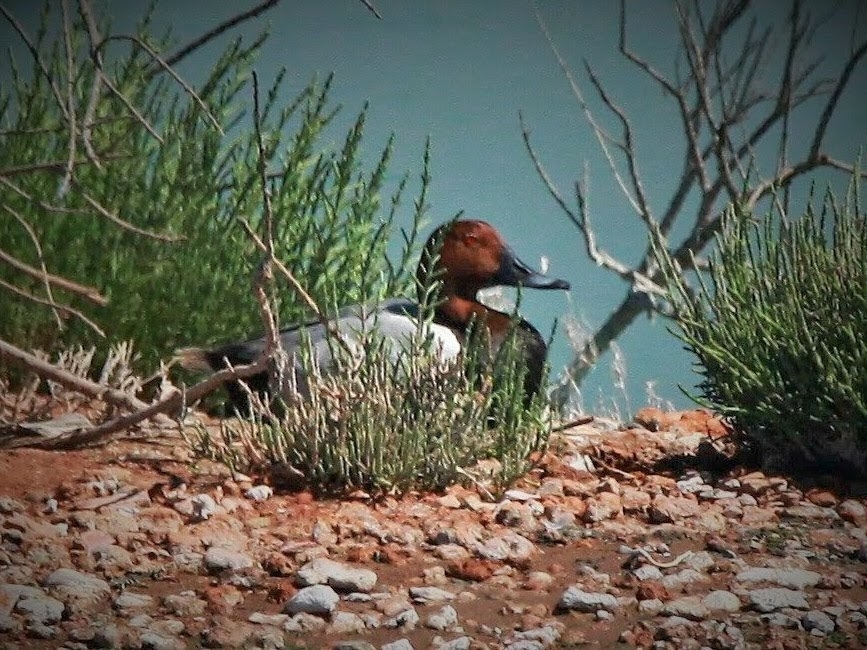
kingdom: Animalia
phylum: Chordata
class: Aves
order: Anseriformes
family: Anatidae
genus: Aythya
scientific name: Aythya ferina
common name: Common pochard
